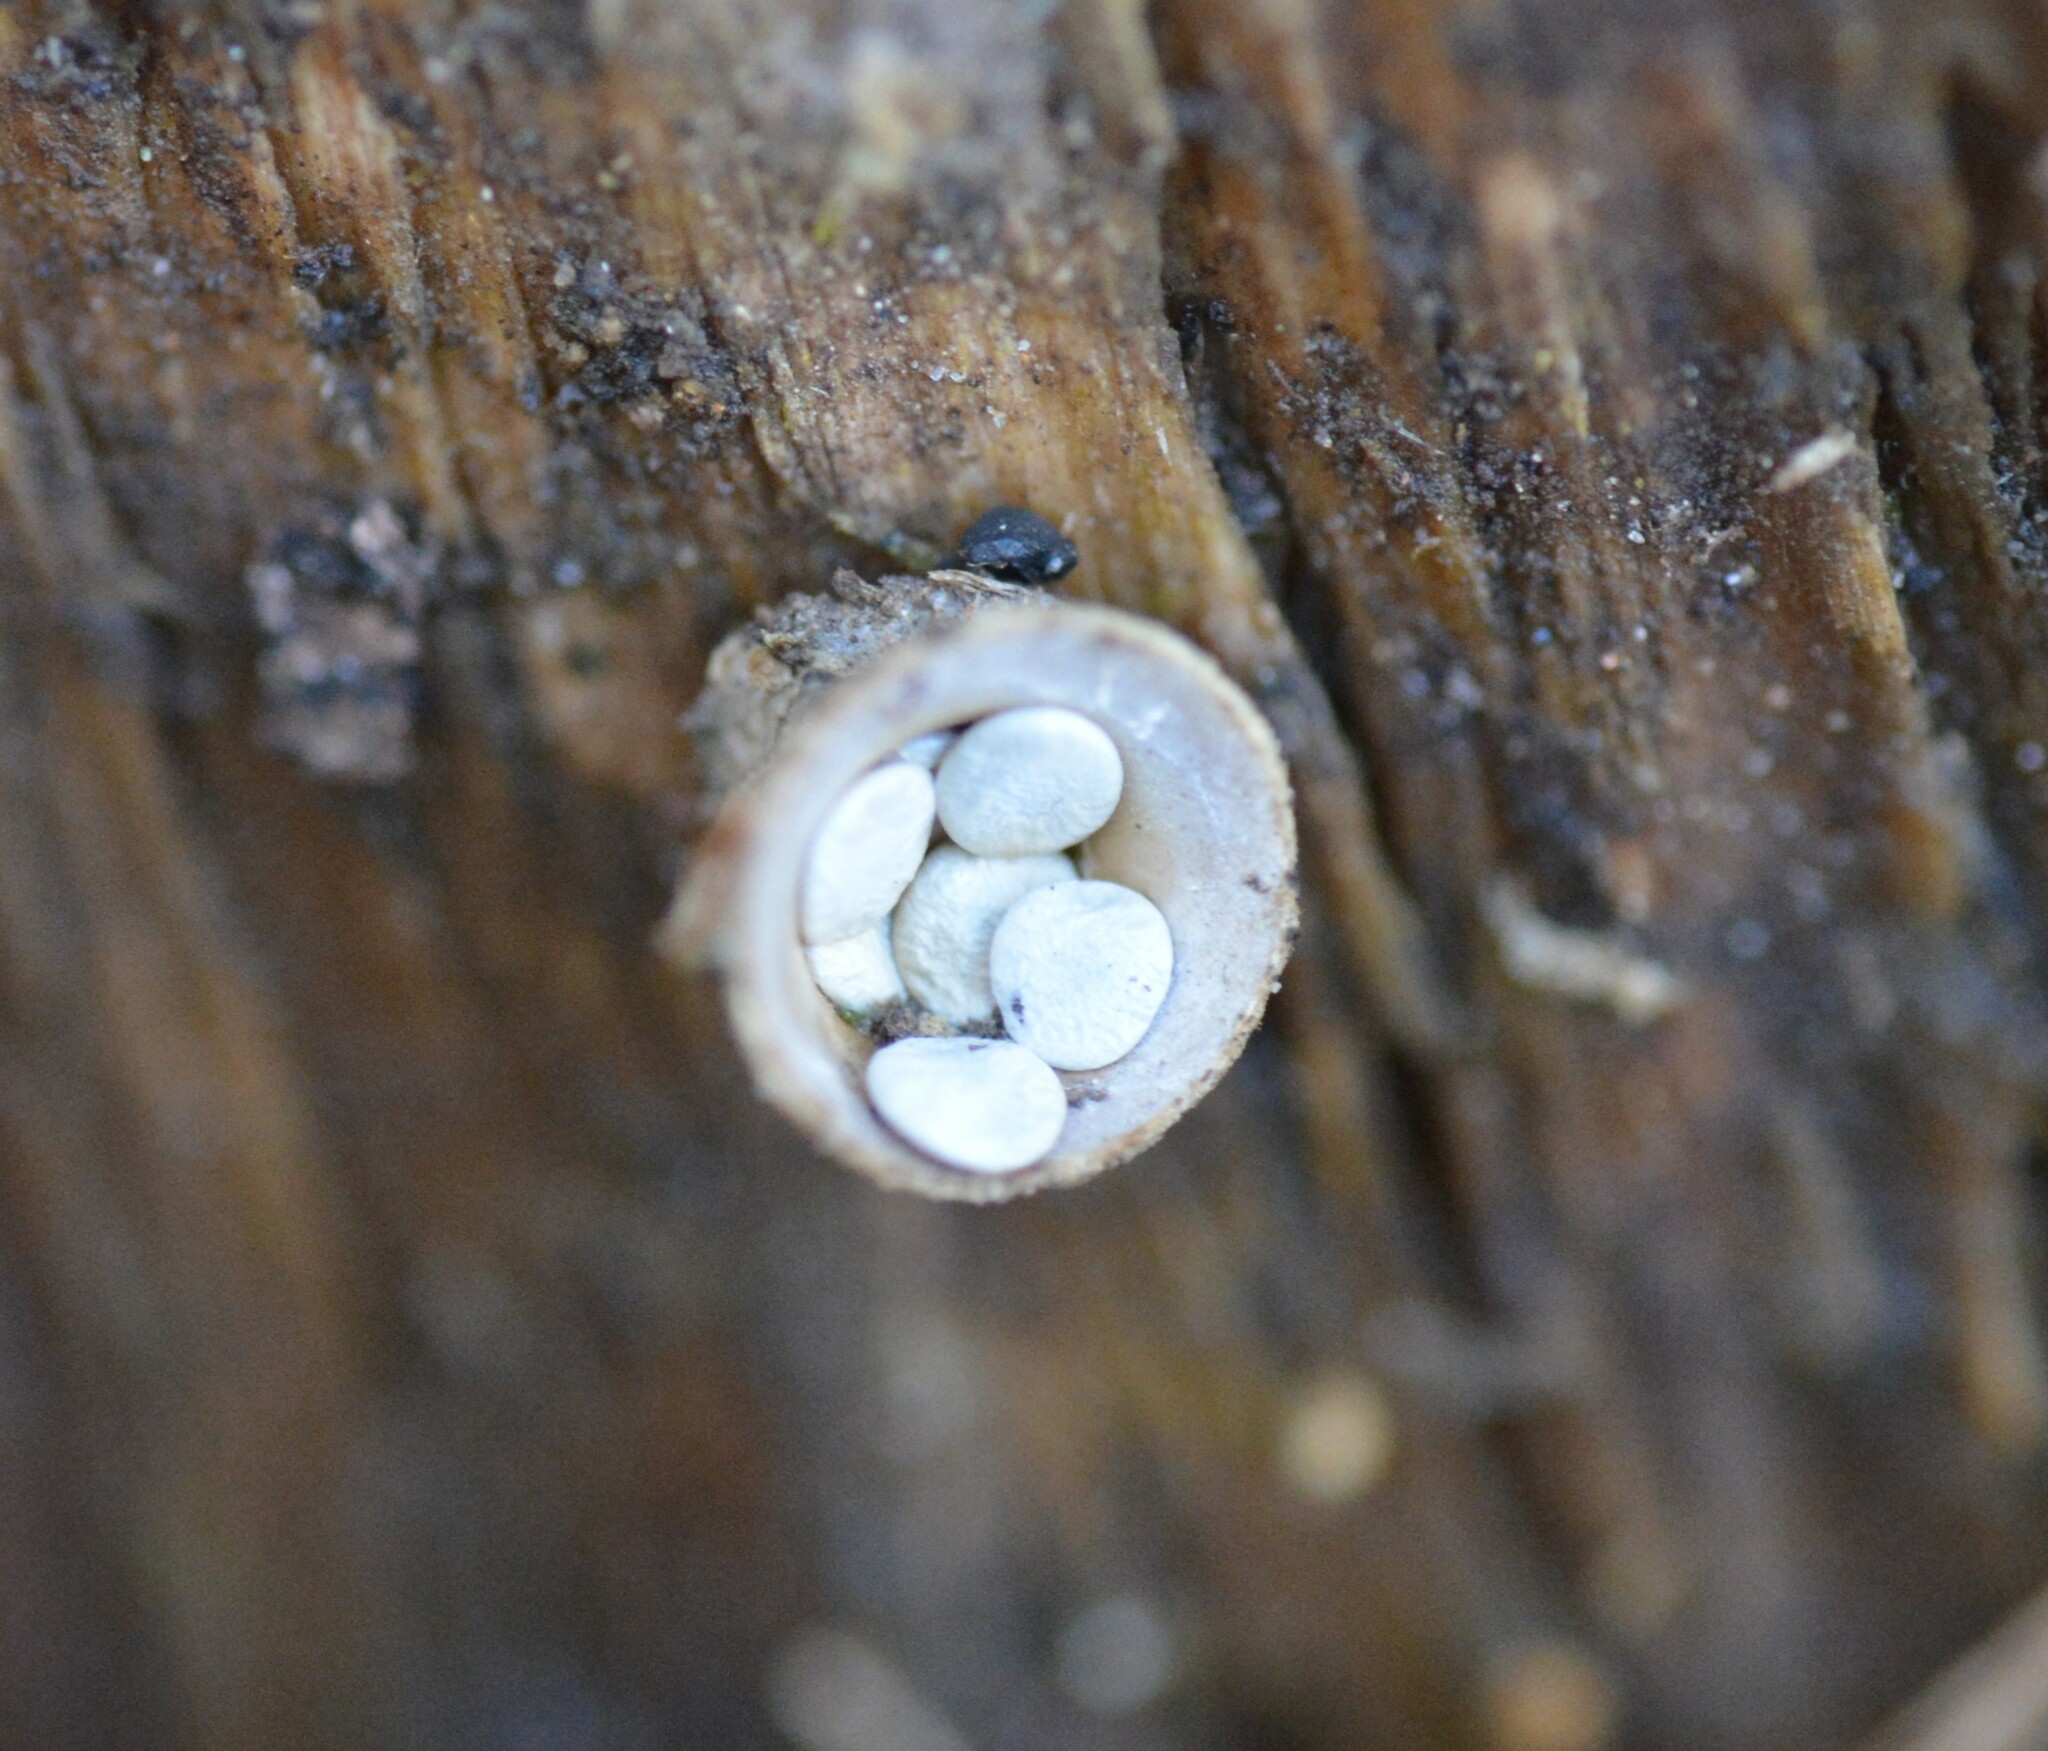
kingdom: Fungi
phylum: Basidiomycota
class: Agaricomycetes
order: Agaricales
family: Nidulariaceae
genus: Crucibulum
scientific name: Crucibulum laeve
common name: Common bird's nest
